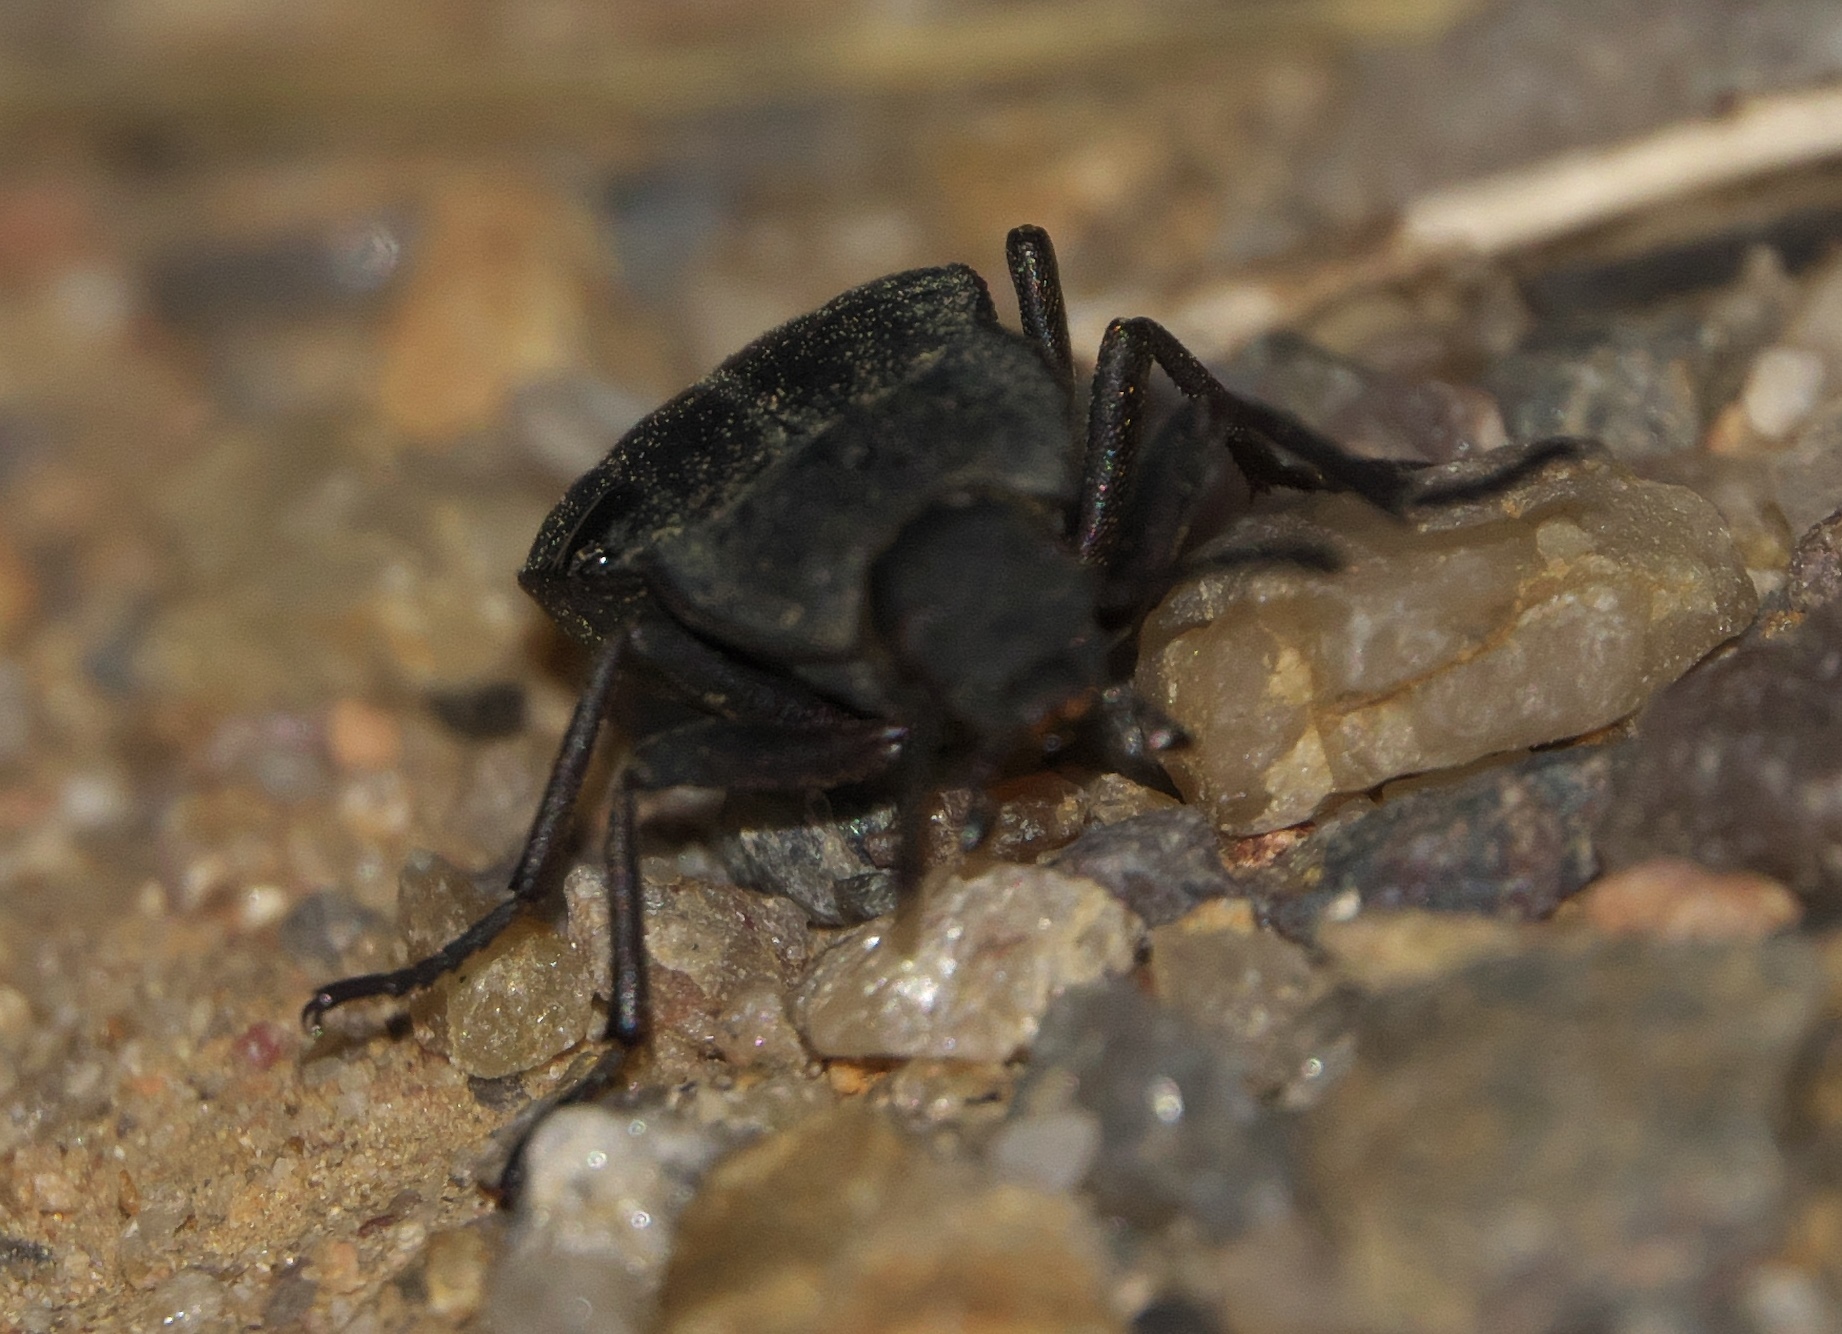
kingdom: Animalia
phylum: Arthropoda
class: Insecta
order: Coleoptera
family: Tenebrionidae
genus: Stenomorpha
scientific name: Stenomorpha opaca
